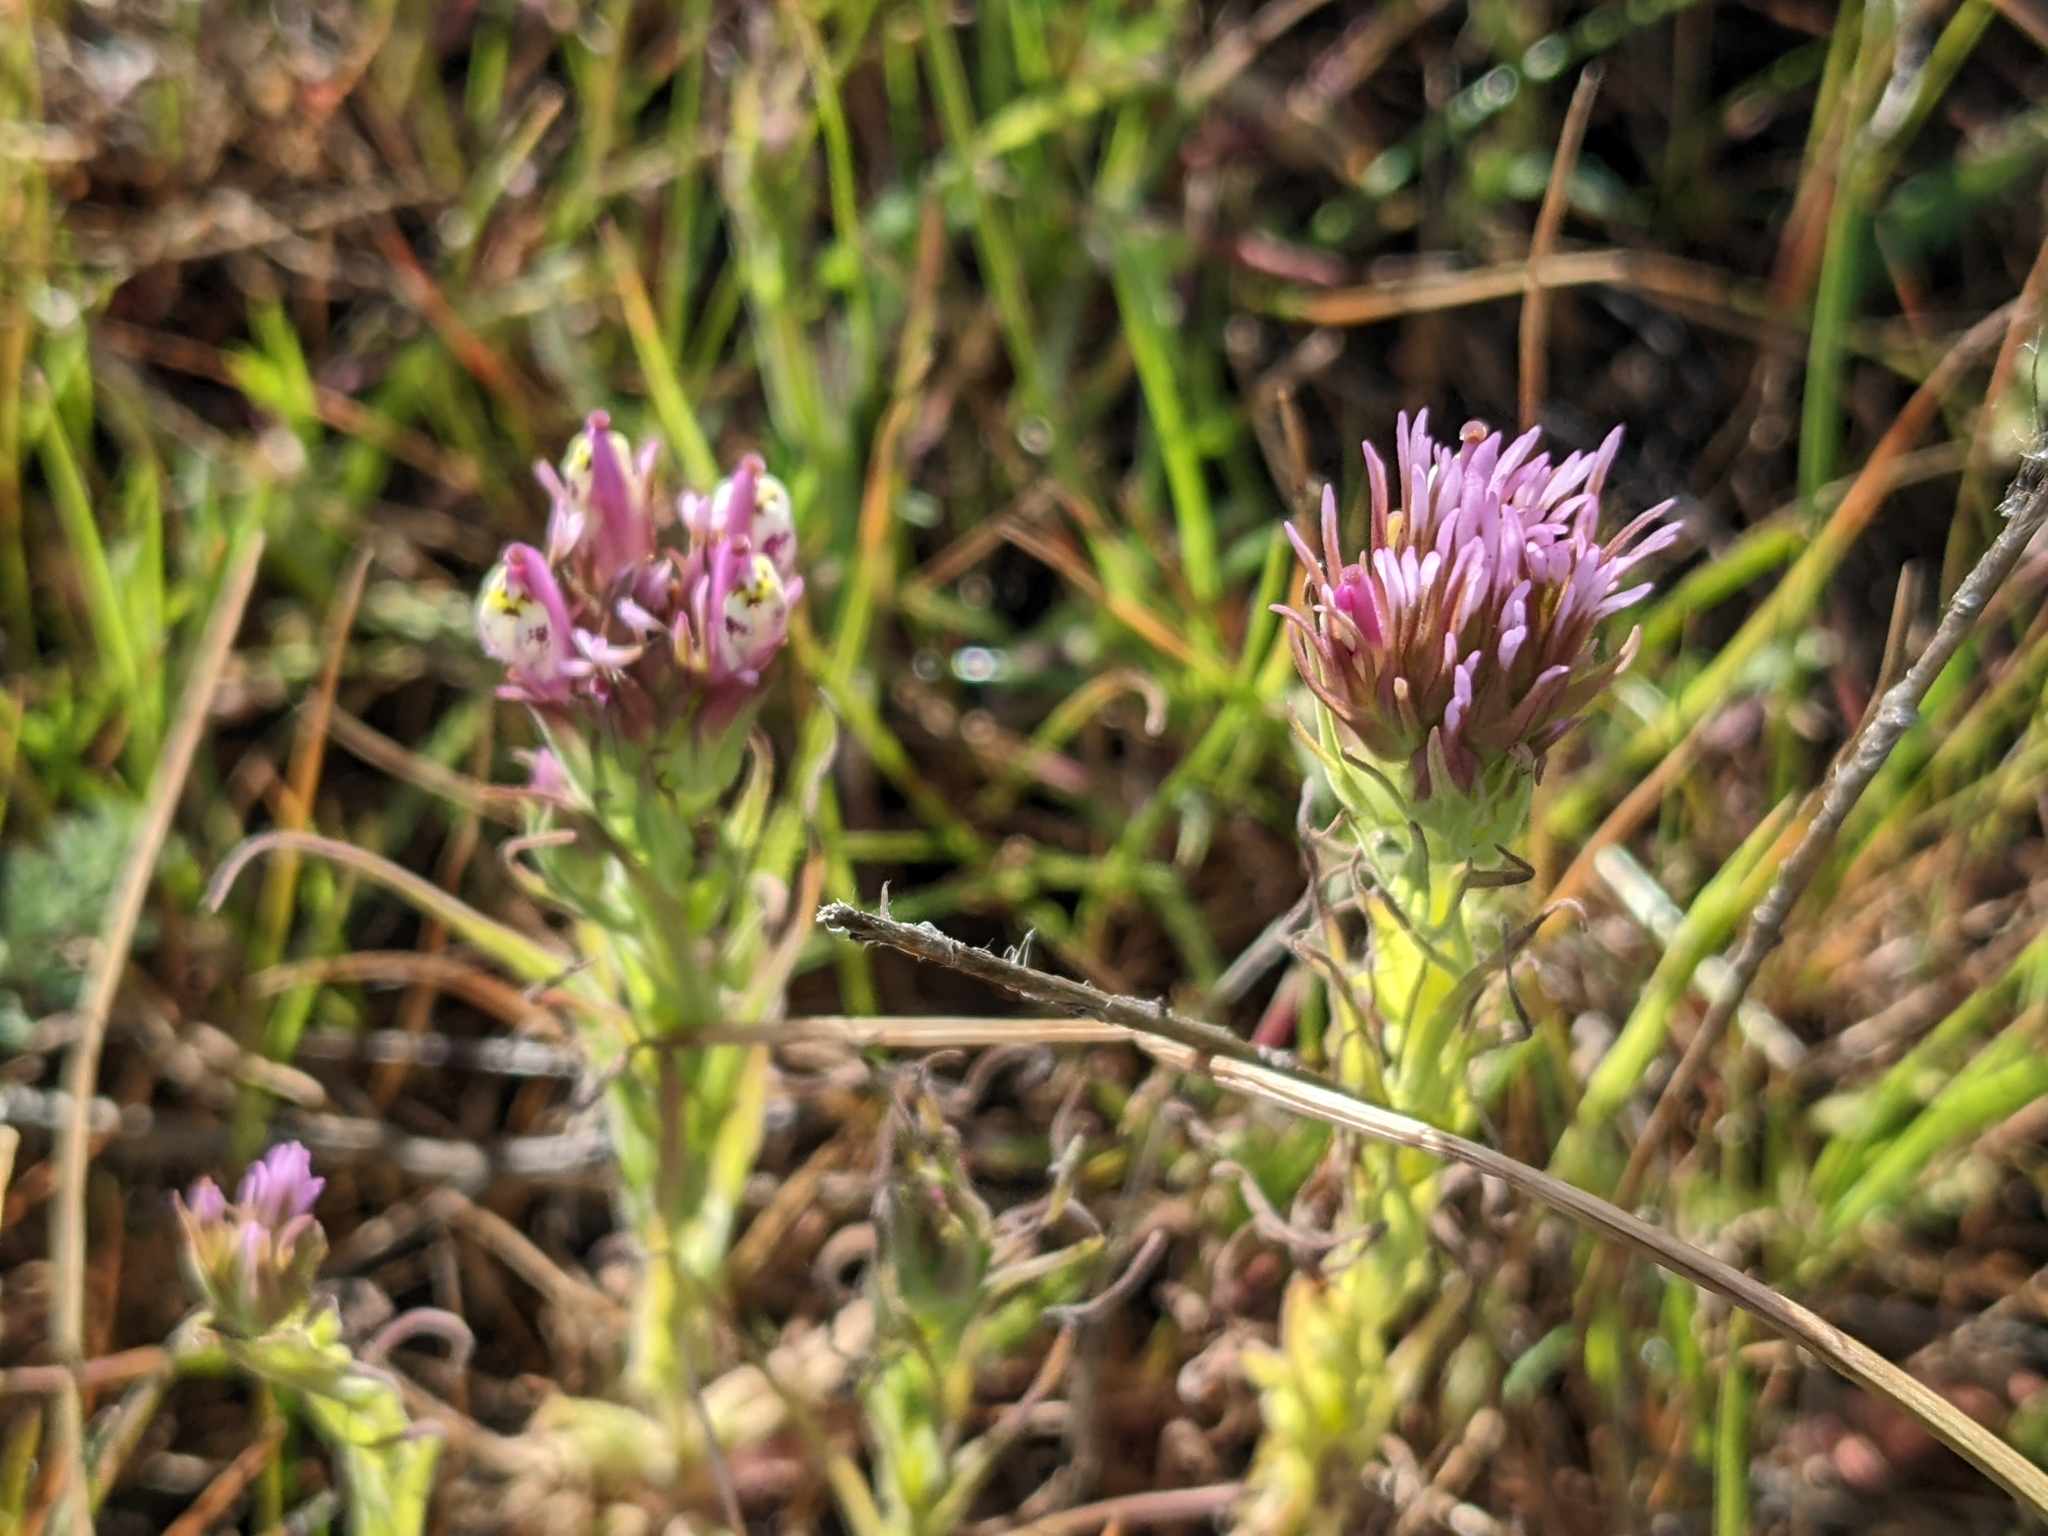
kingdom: Plantae
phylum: Tracheophyta
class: Magnoliopsida
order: Lamiales
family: Orobanchaceae
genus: Castilleja
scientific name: Castilleja densiflora
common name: Dense-flower indian paintbrush
